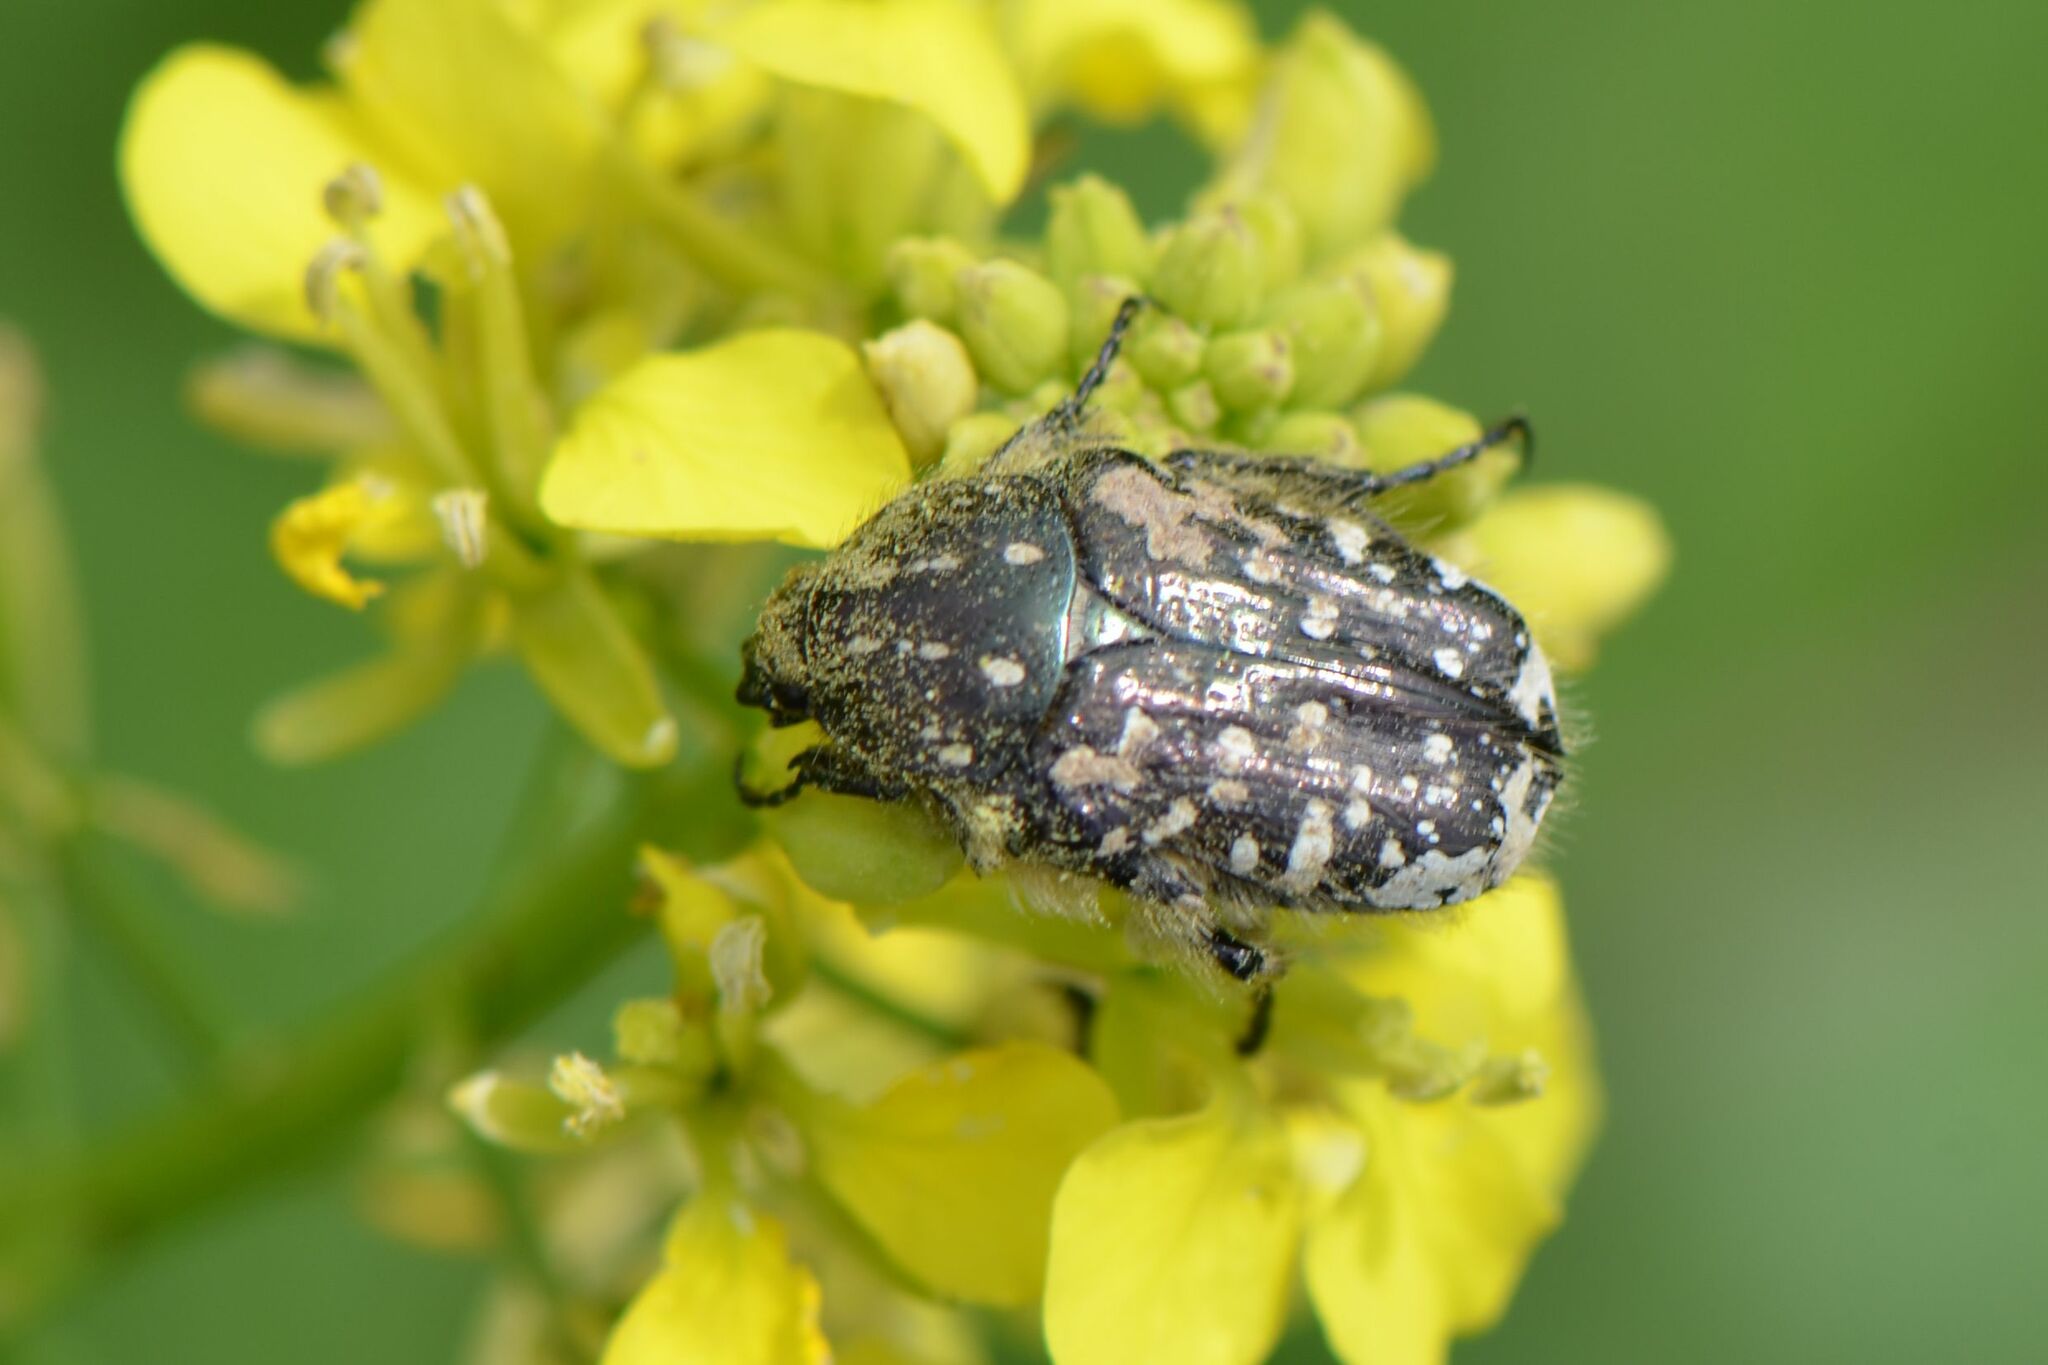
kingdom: Animalia
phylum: Arthropoda
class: Insecta
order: Coleoptera
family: Scarabaeidae
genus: Oxythyrea
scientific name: Oxythyrea funesta
